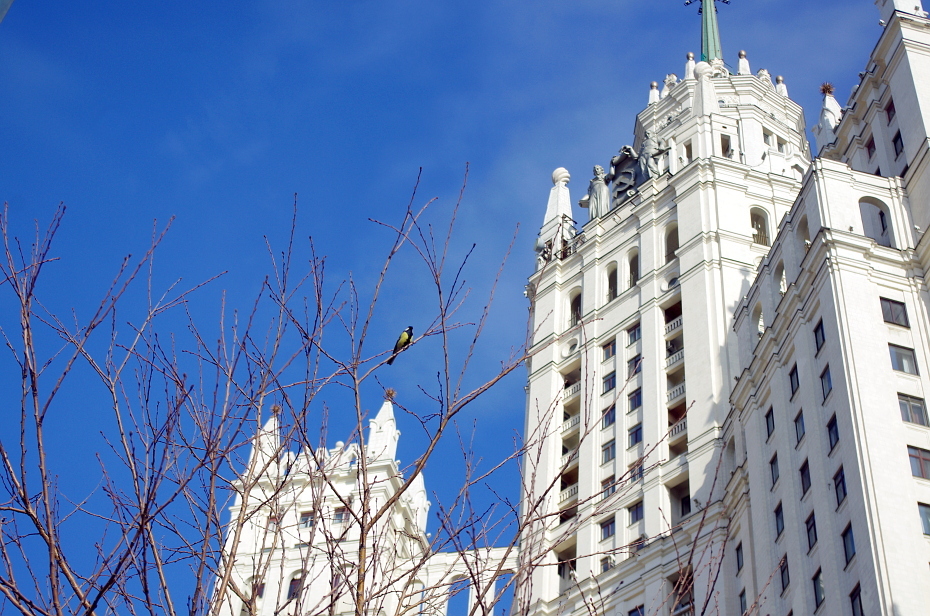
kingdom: Animalia
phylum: Chordata
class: Aves
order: Passeriformes
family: Paridae
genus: Parus
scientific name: Parus major
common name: Great tit
